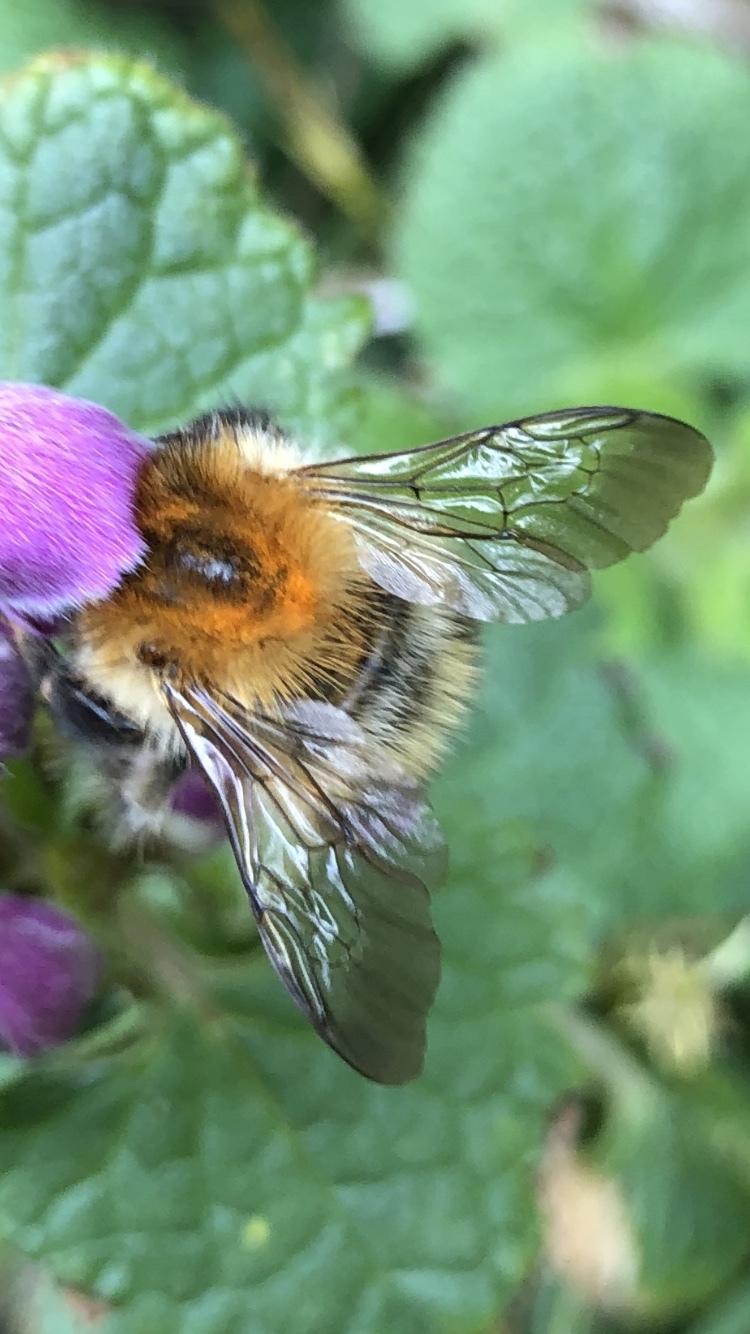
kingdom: Animalia
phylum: Arthropoda
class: Insecta
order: Hymenoptera
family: Apidae
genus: Bombus
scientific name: Bombus pascuorum
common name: Common carder bee
